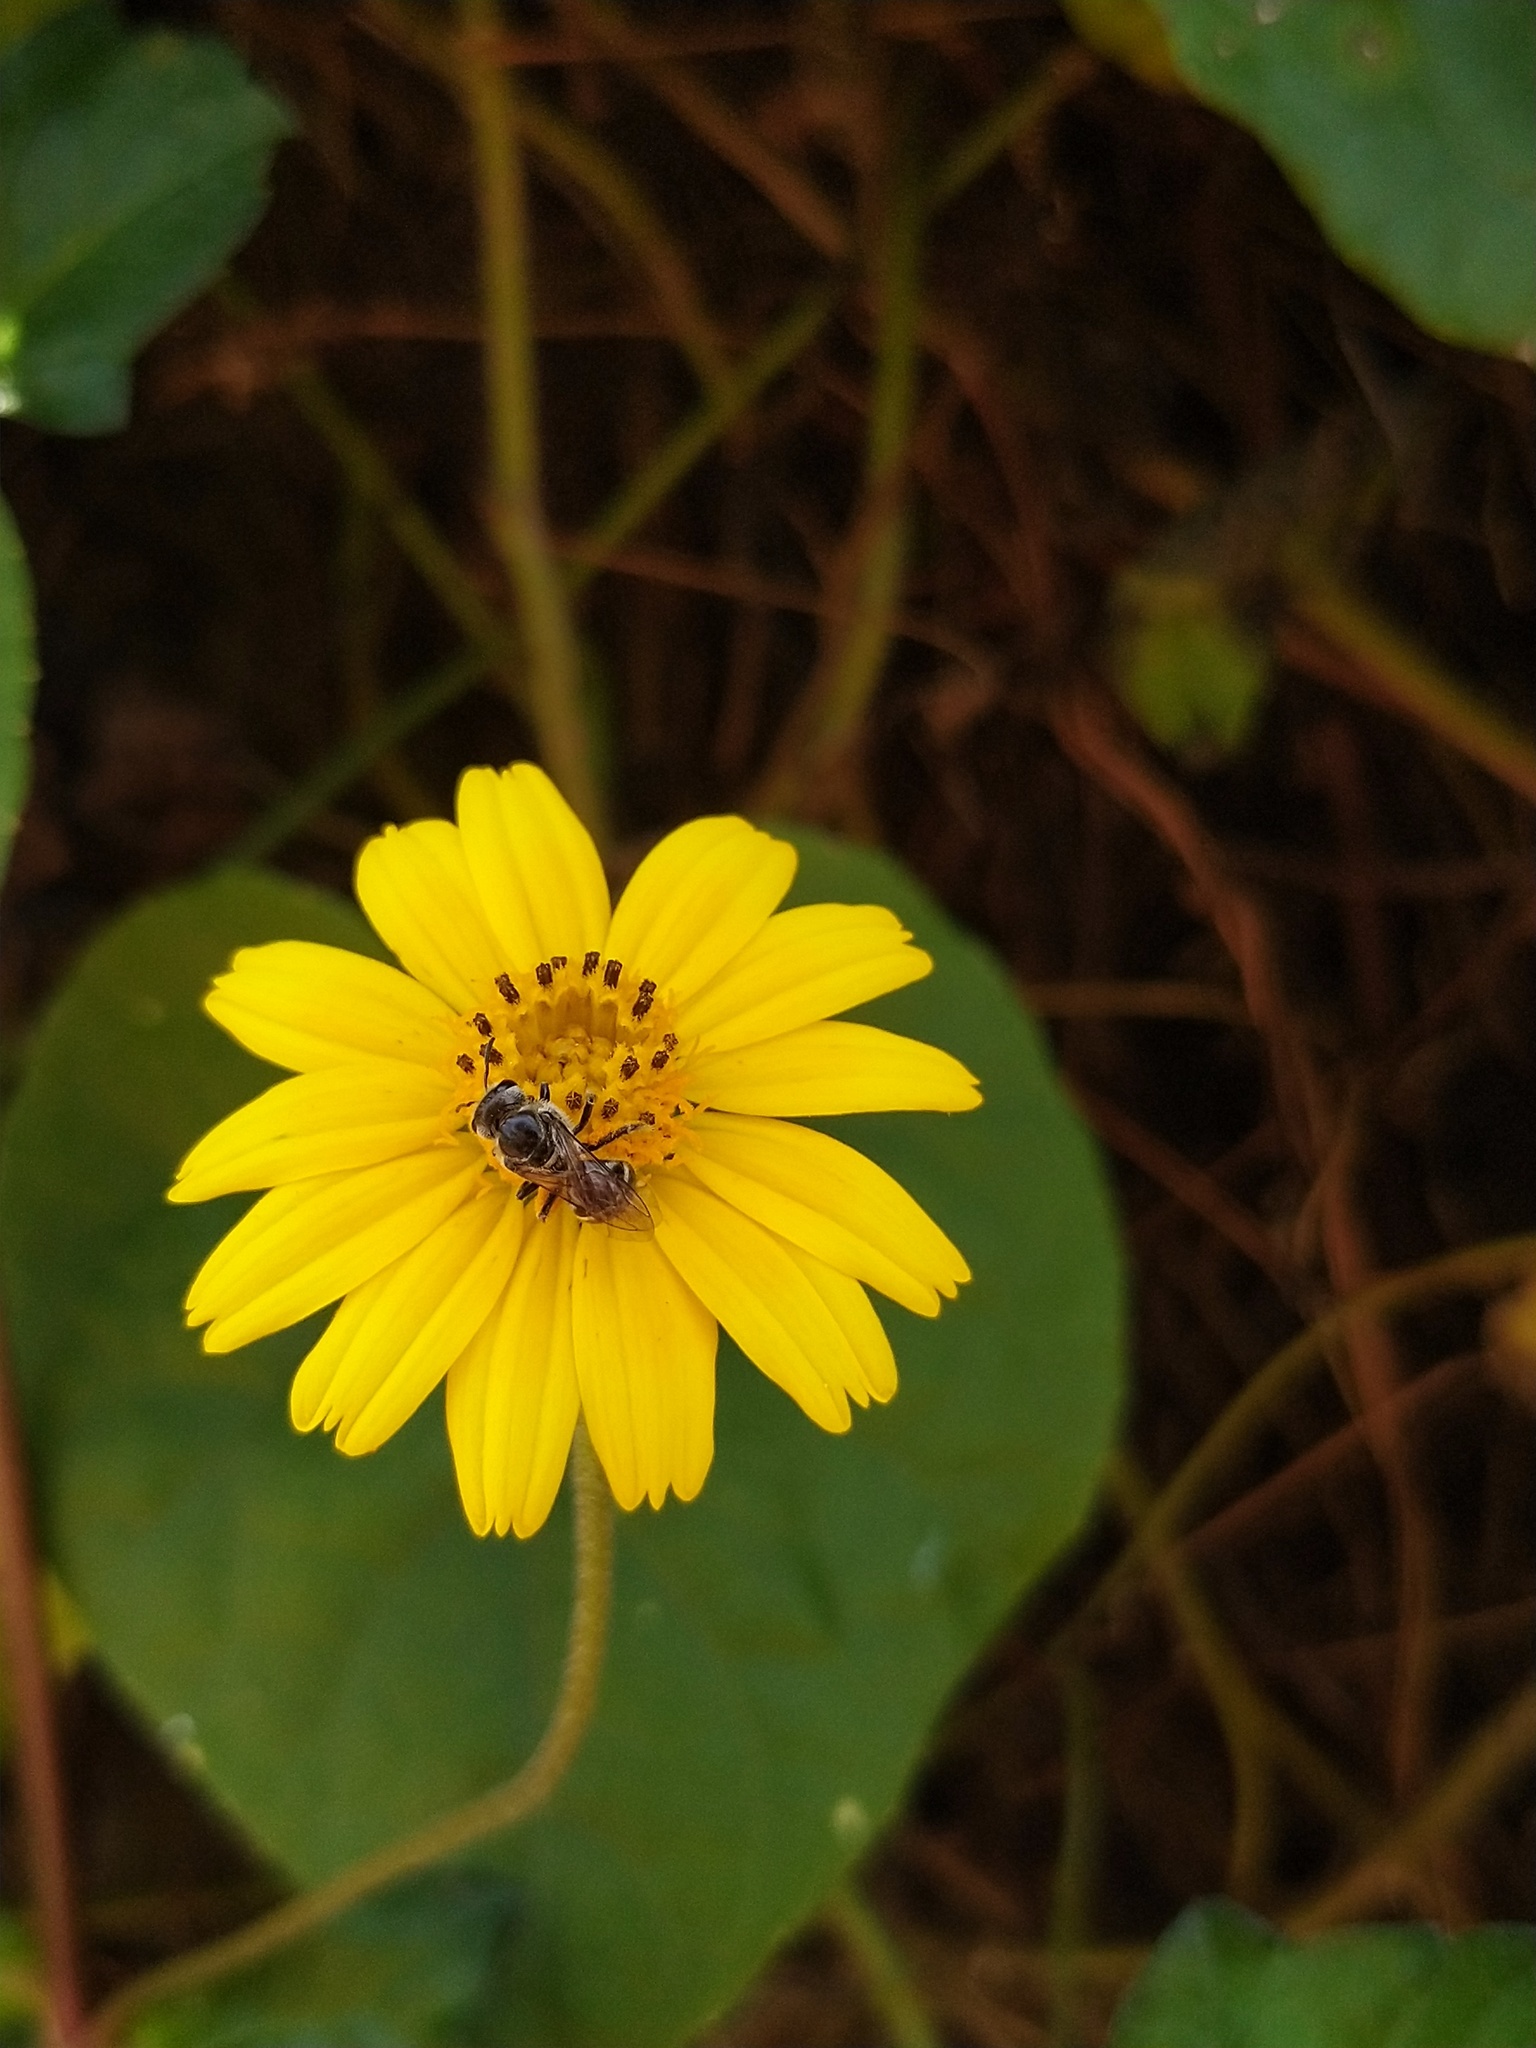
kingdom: Animalia
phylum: Arthropoda
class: Insecta
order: Hymenoptera
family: Halictidae
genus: Lasioglossum
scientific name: Lasioglossum albescens
